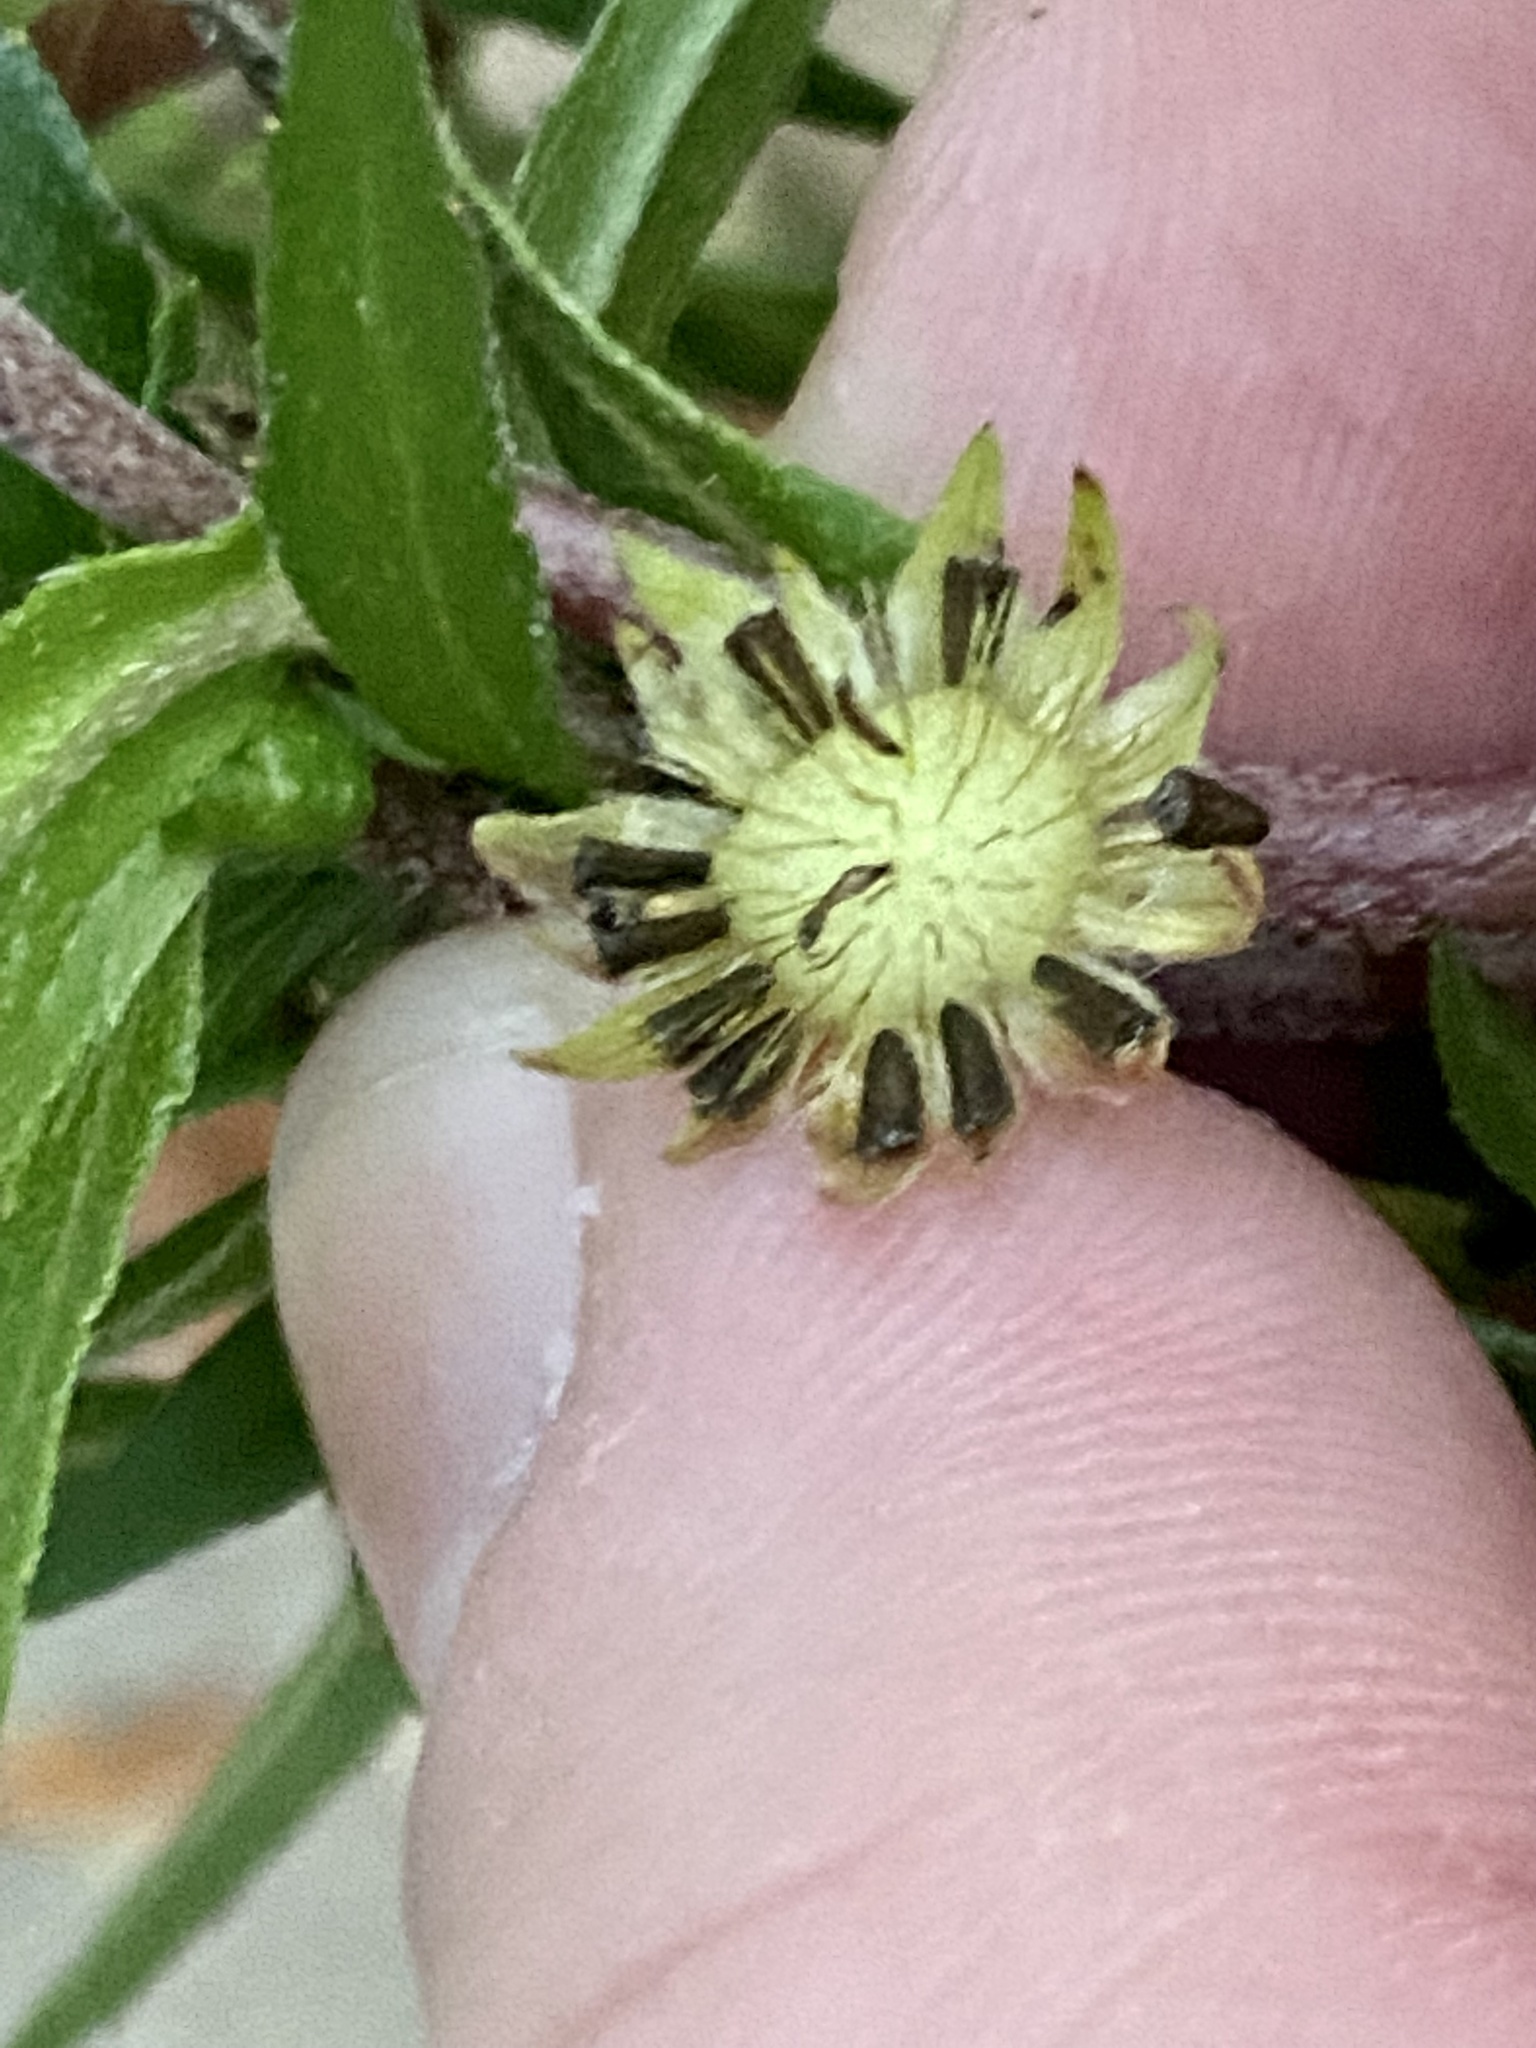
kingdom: Plantae
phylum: Tracheophyta
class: Magnoliopsida
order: Asterales
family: Asteraceae
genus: Eclipta
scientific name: Eclipta prostrata
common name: False daisy
